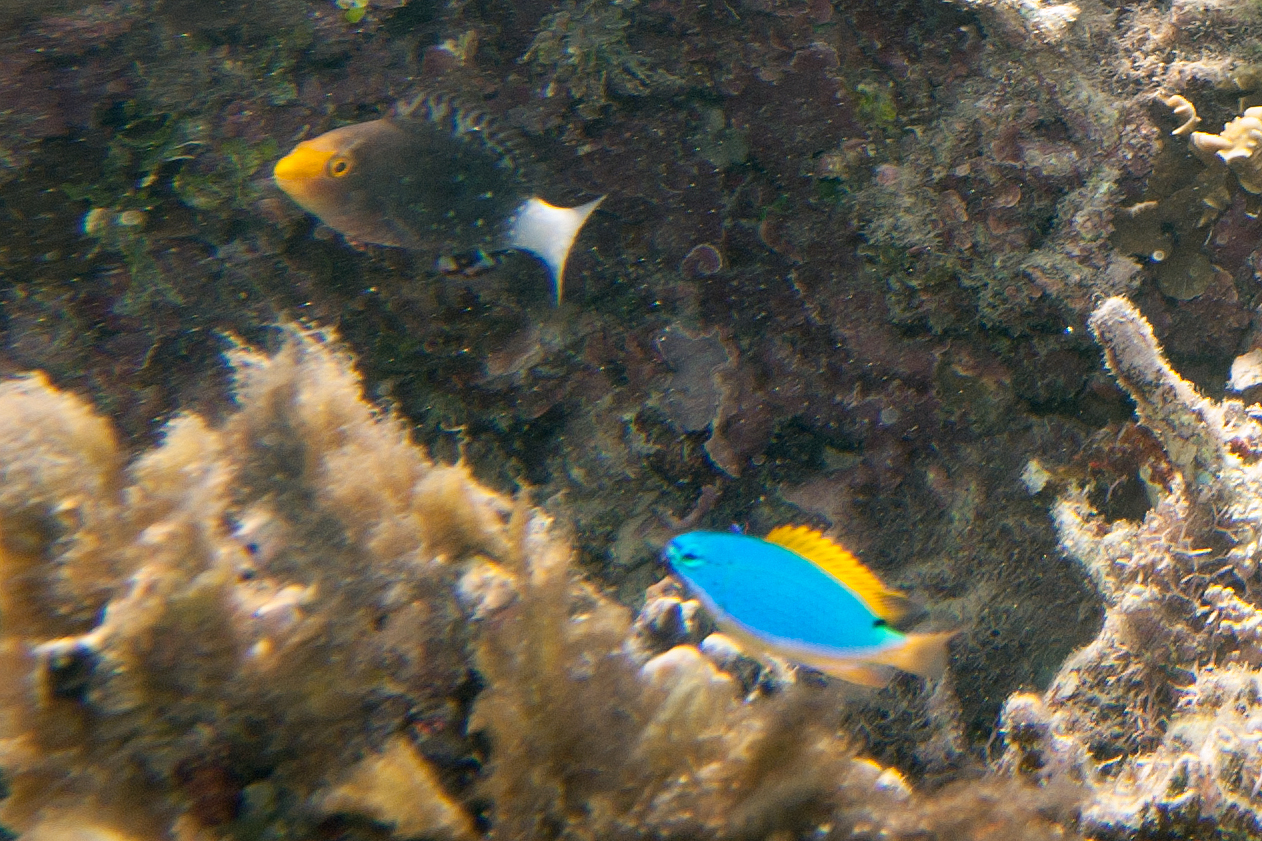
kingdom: Animalia
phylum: Chordata
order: Perciformes
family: Scaridae
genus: Scarus
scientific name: Scarus altipinnis
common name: Minifin parrotfish
